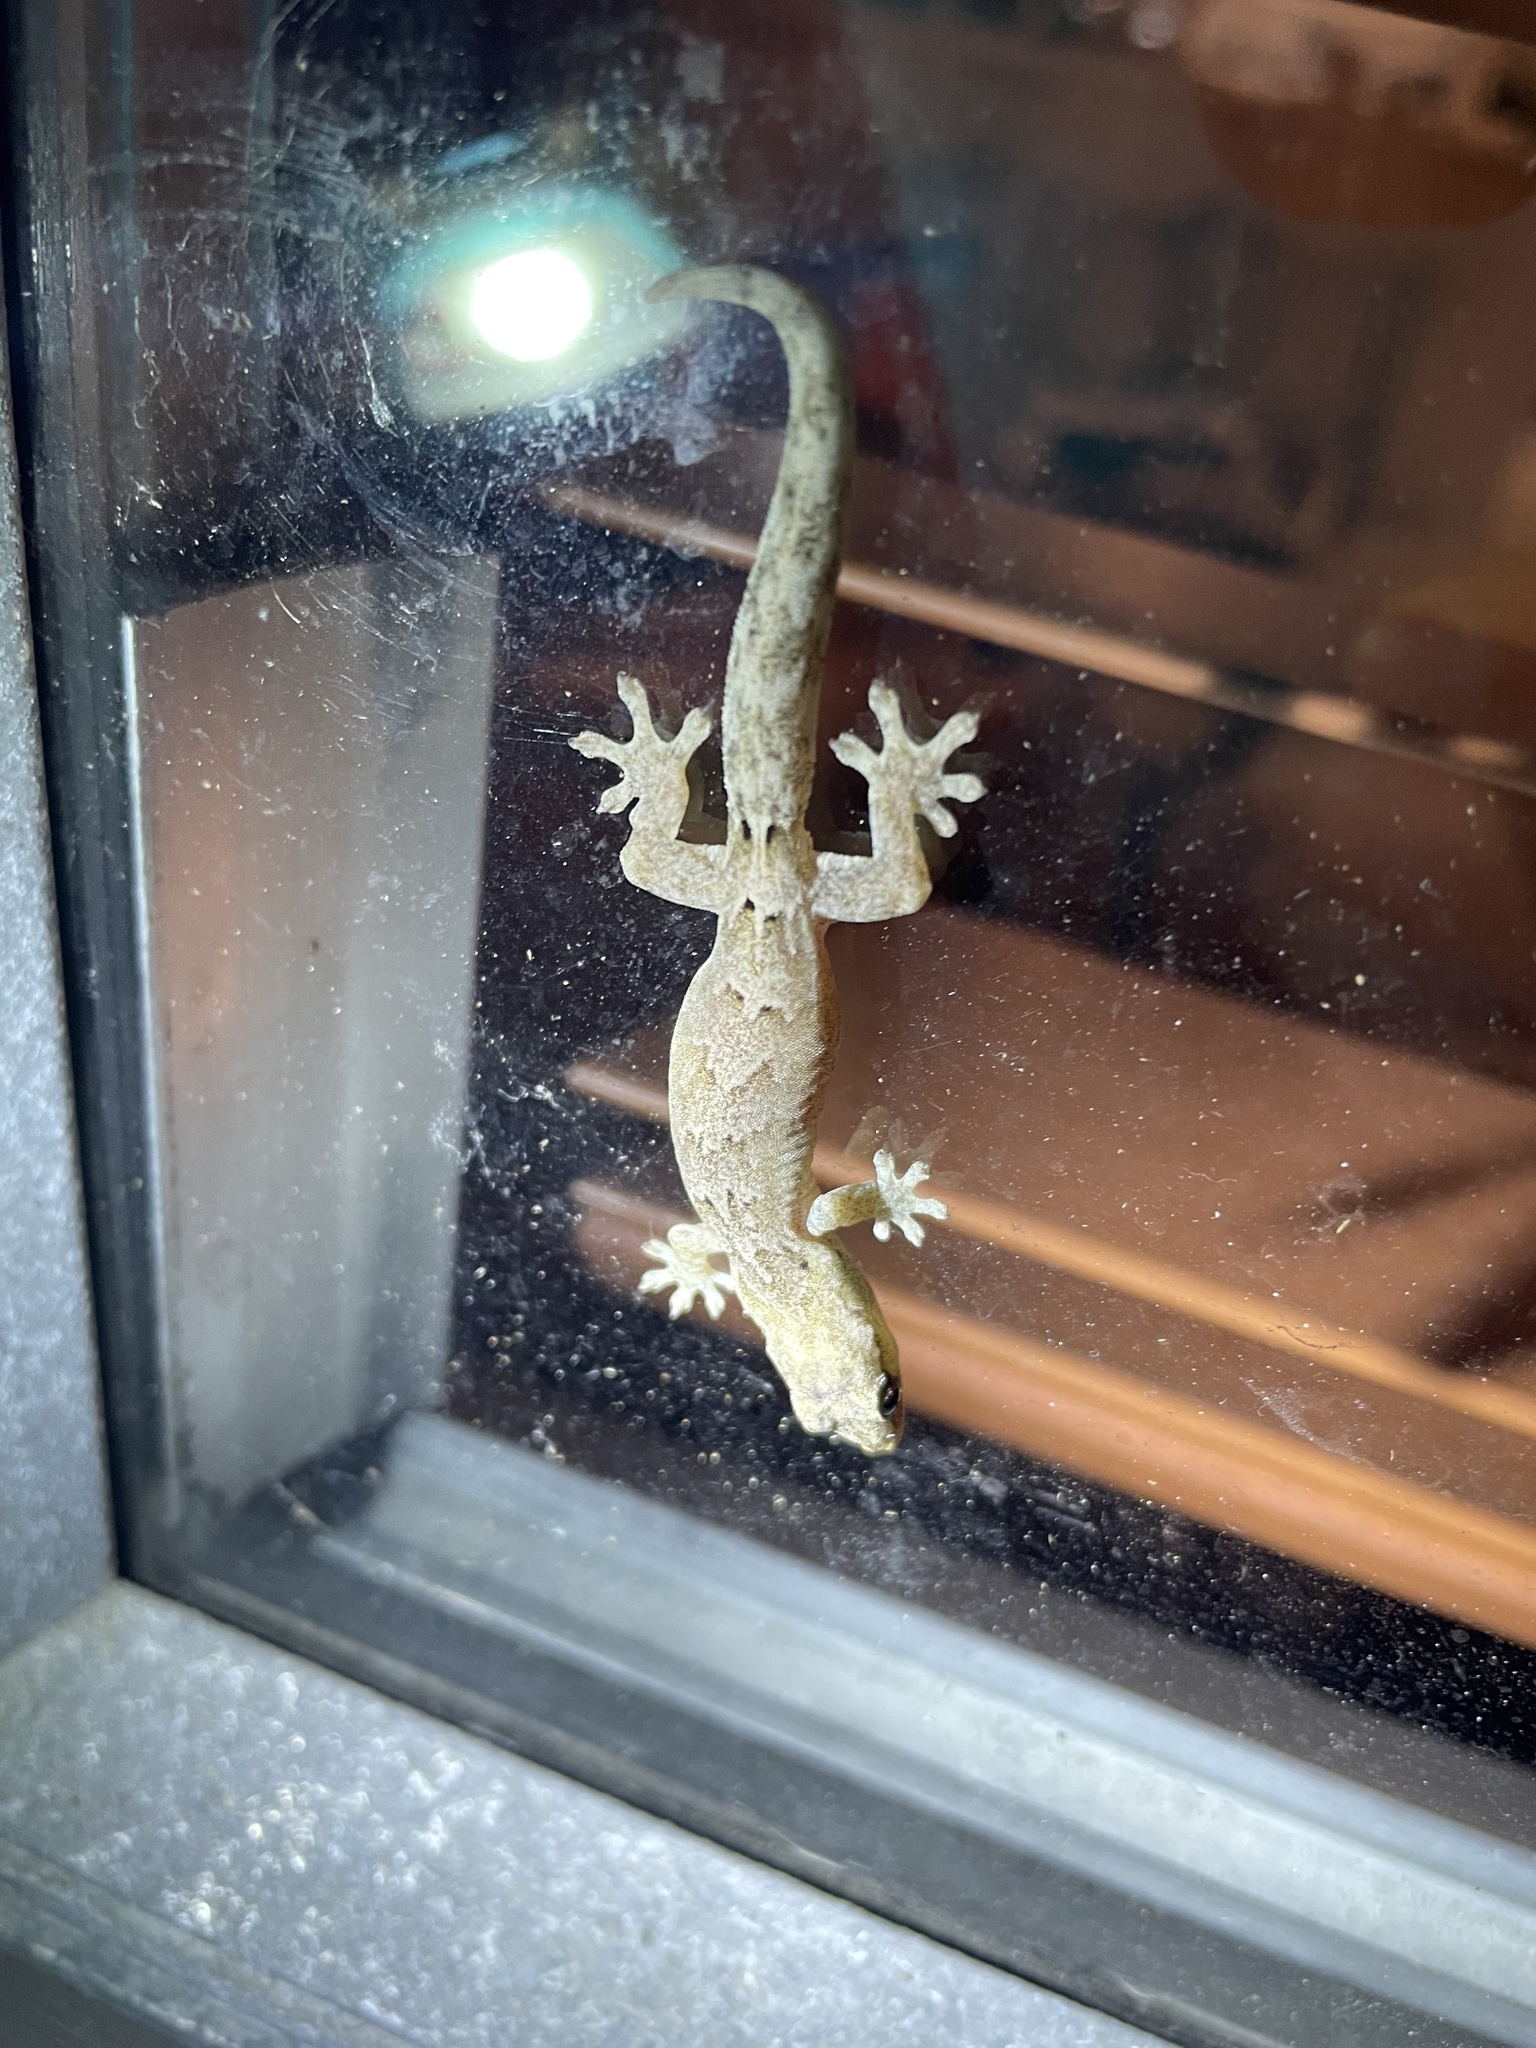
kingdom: Animalia
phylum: Chordata
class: Squamata
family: Gekkonidae
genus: Lepidodactylus
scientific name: Lepidodactylus lugubris
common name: Mourning gecko
